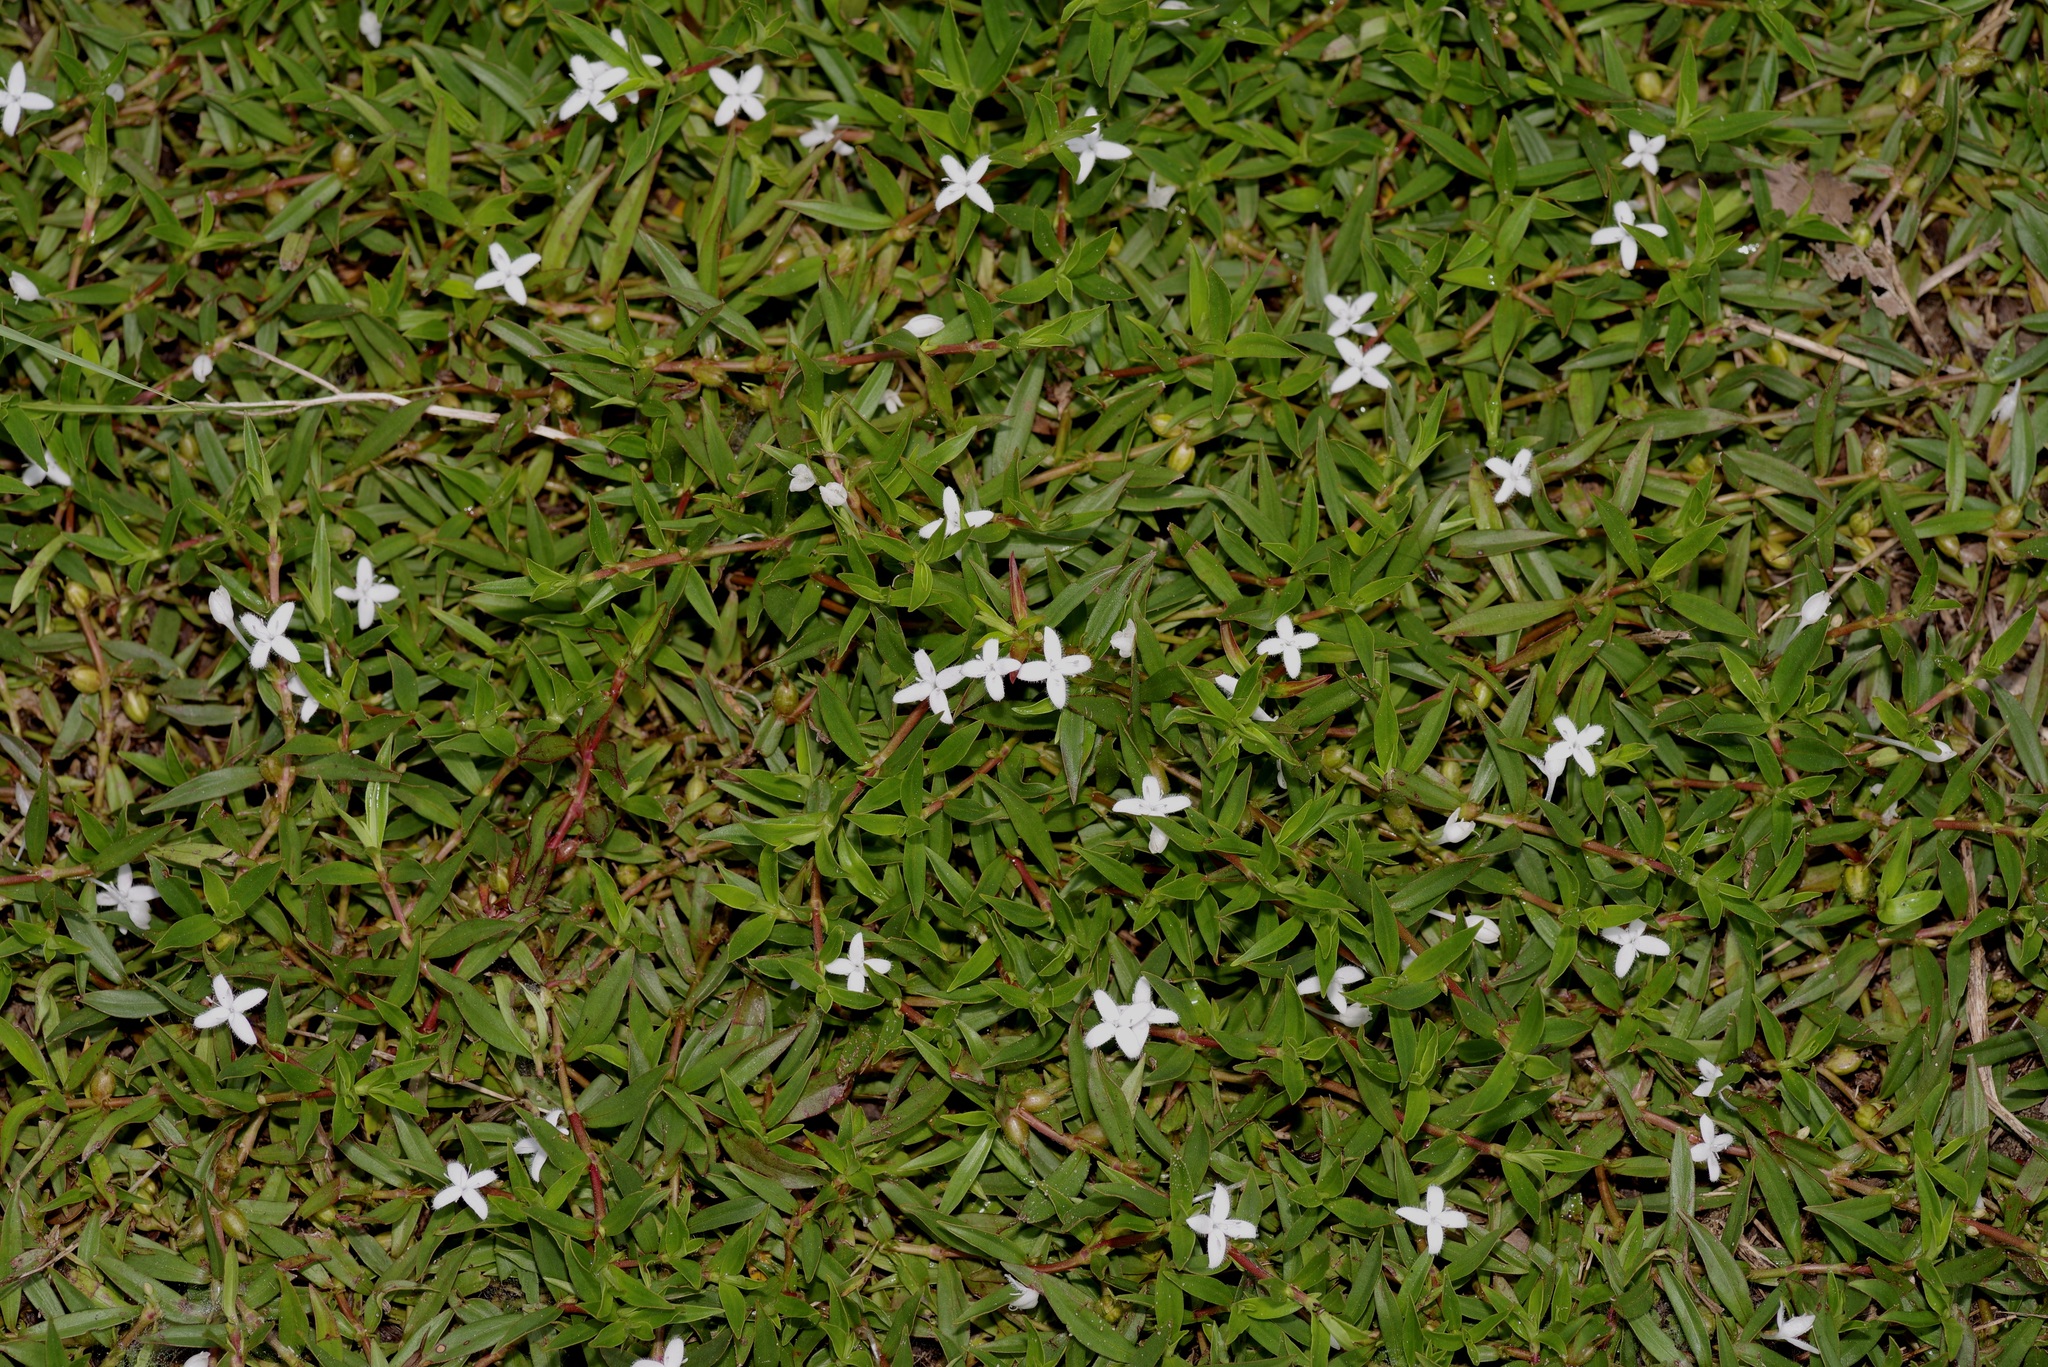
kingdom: Plantae
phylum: Tracheophyta
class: Magnoliopsida
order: Gentianales
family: Rubiaceae
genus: Diodia
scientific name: Diodia virginiana
